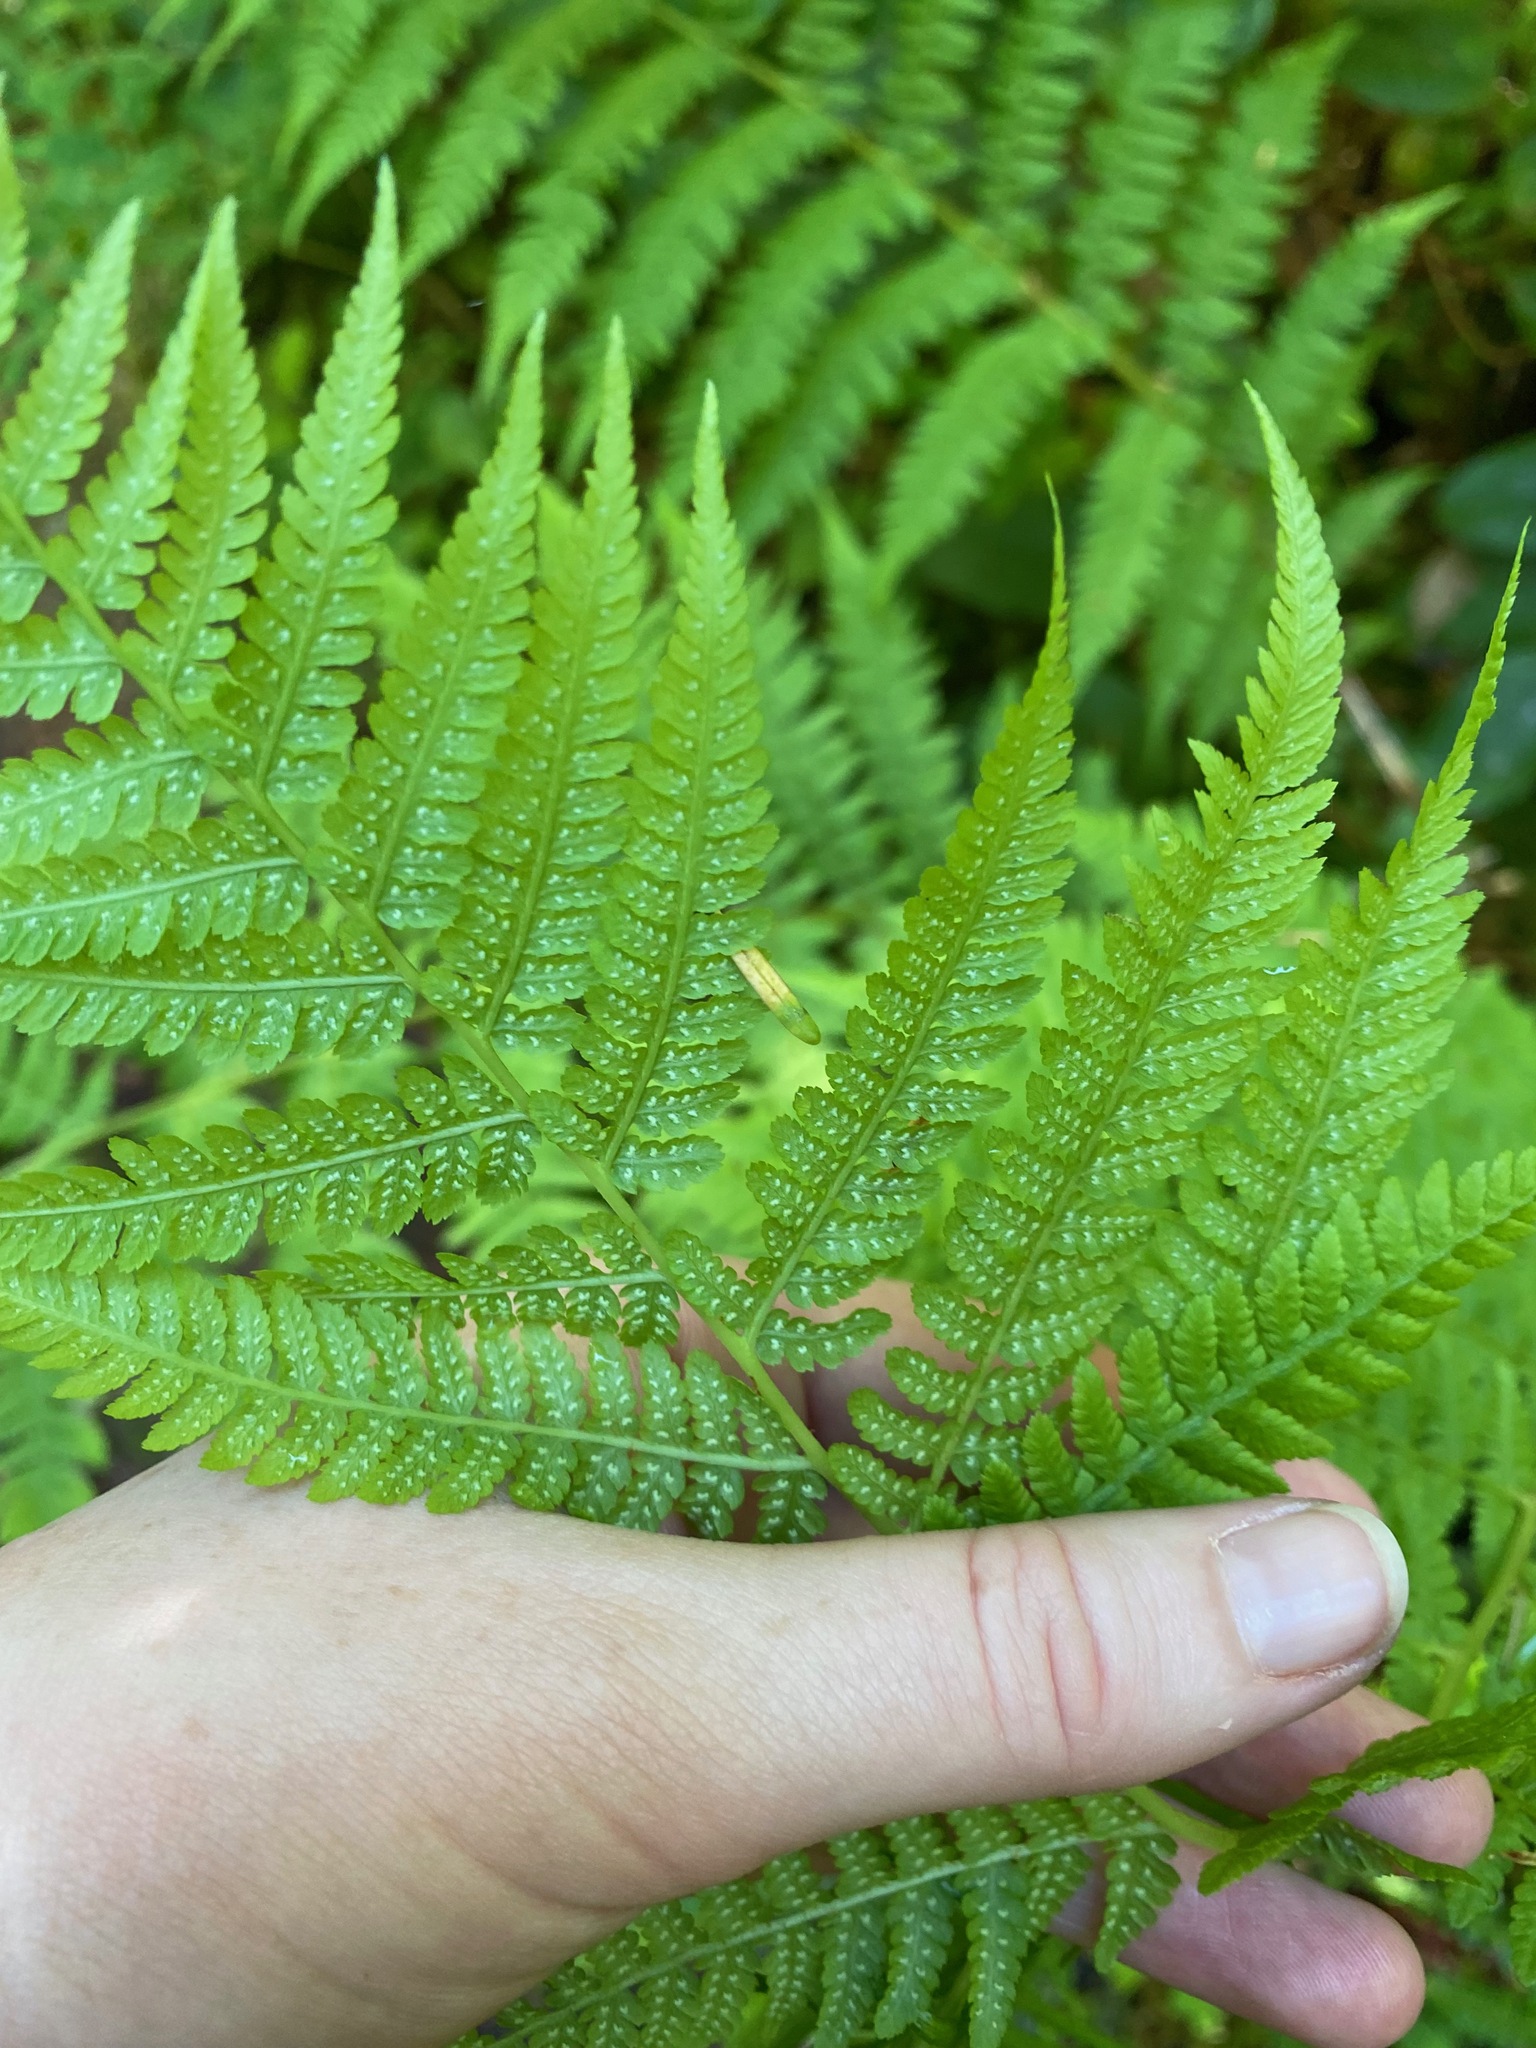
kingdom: Plantae
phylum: Tracheophyta
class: Polypodiopsida
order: Polypodiales
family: Athyriaceae
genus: Athyrium
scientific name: Athyrium filix-femina
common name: Lady fern
